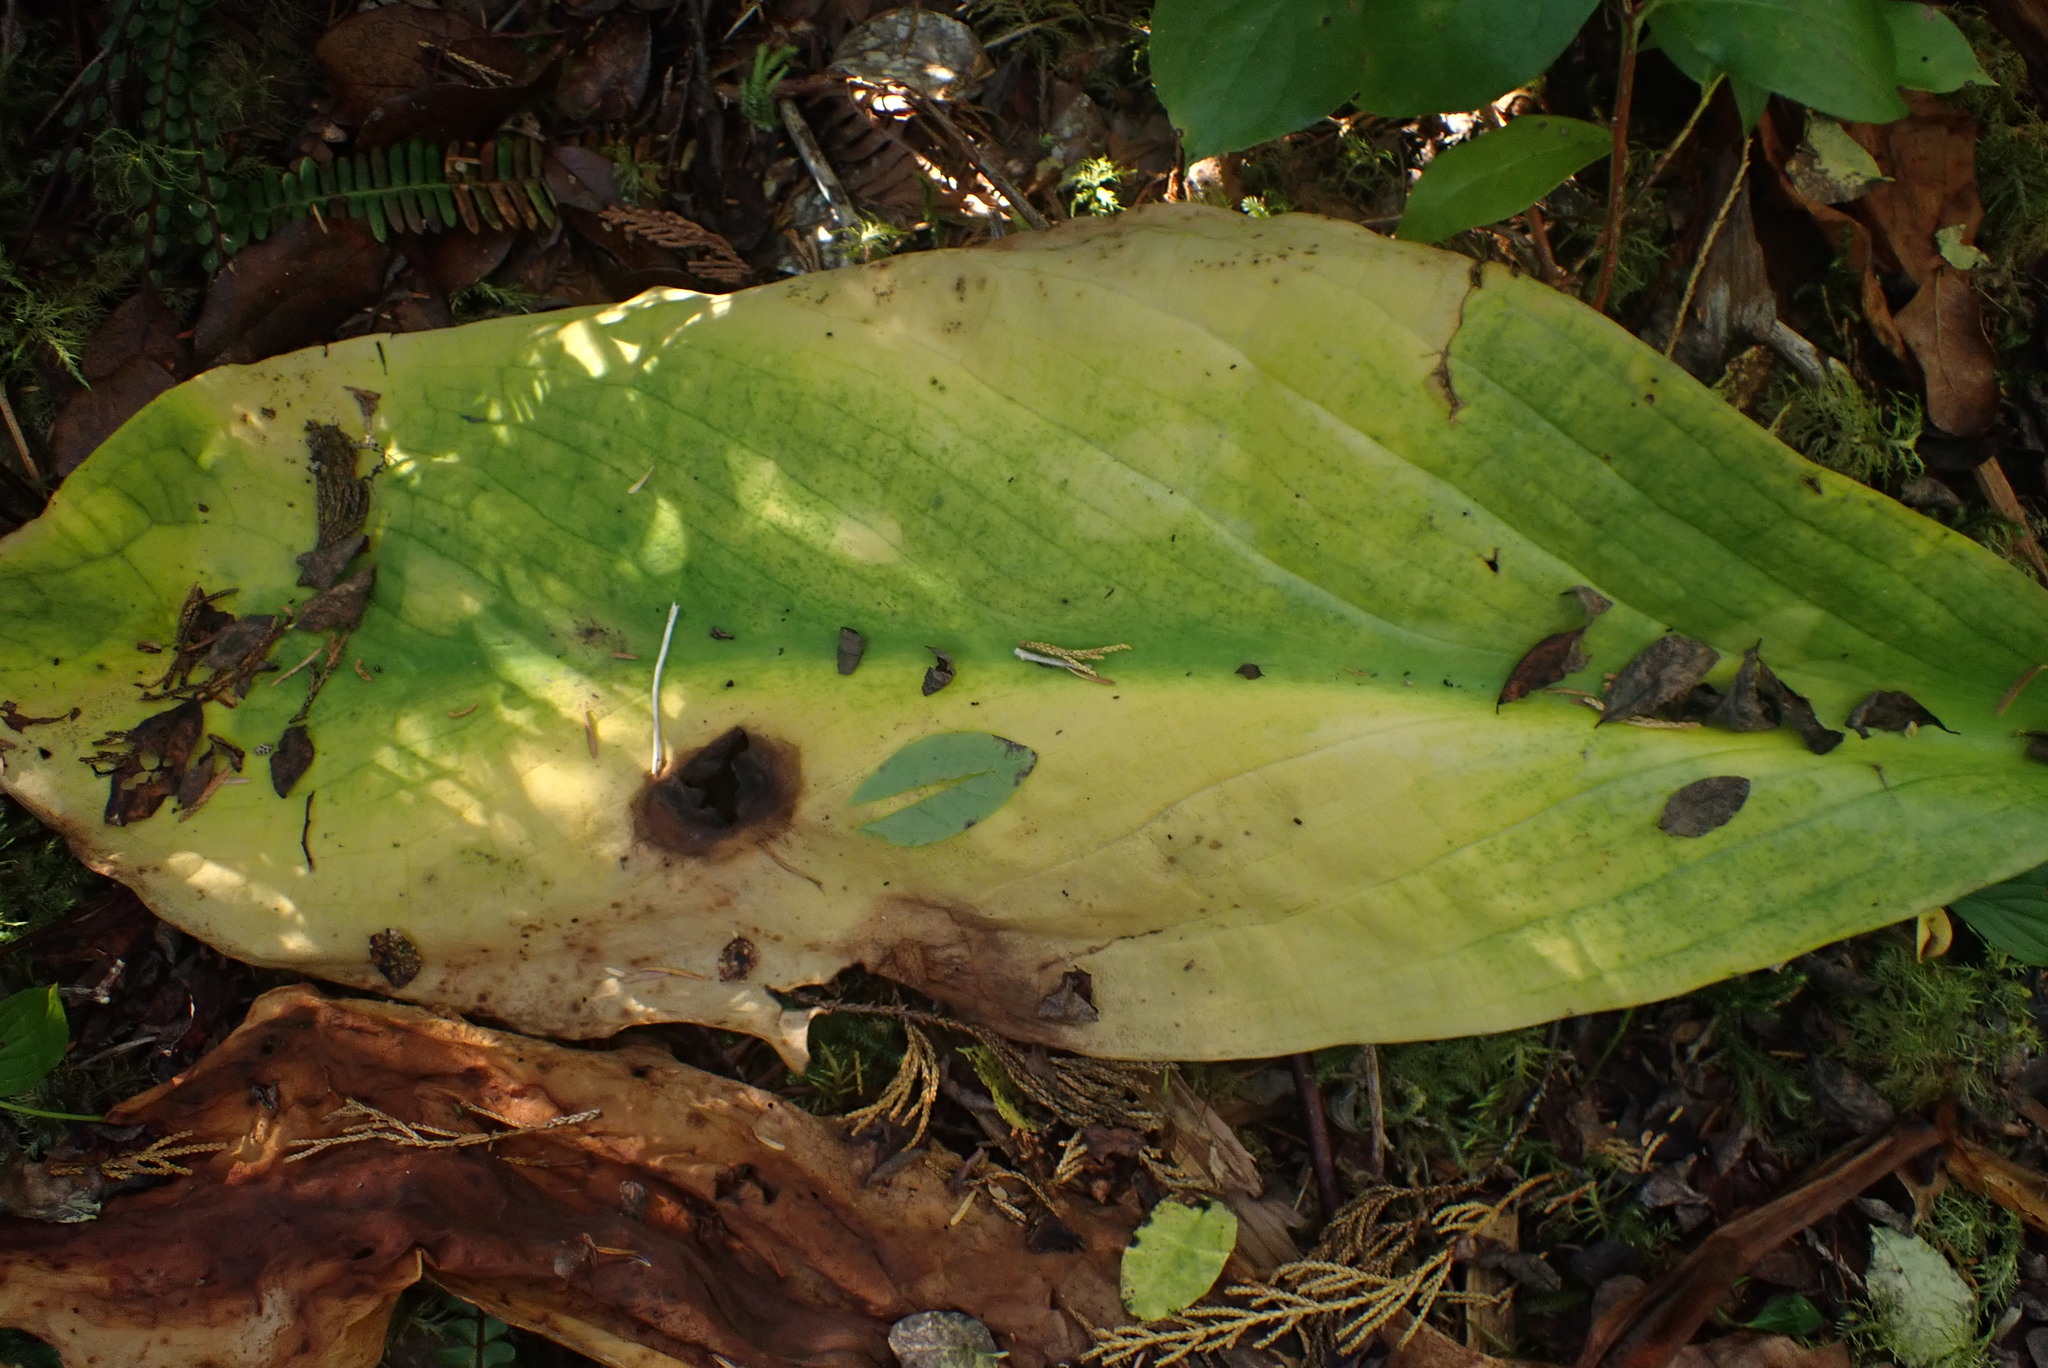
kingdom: Plantae
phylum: Tracheophyta
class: Liliopsida
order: Alismatales
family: Araceae
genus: Lysichiton
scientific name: Lysichiton americanus
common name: American skunk cabbage
